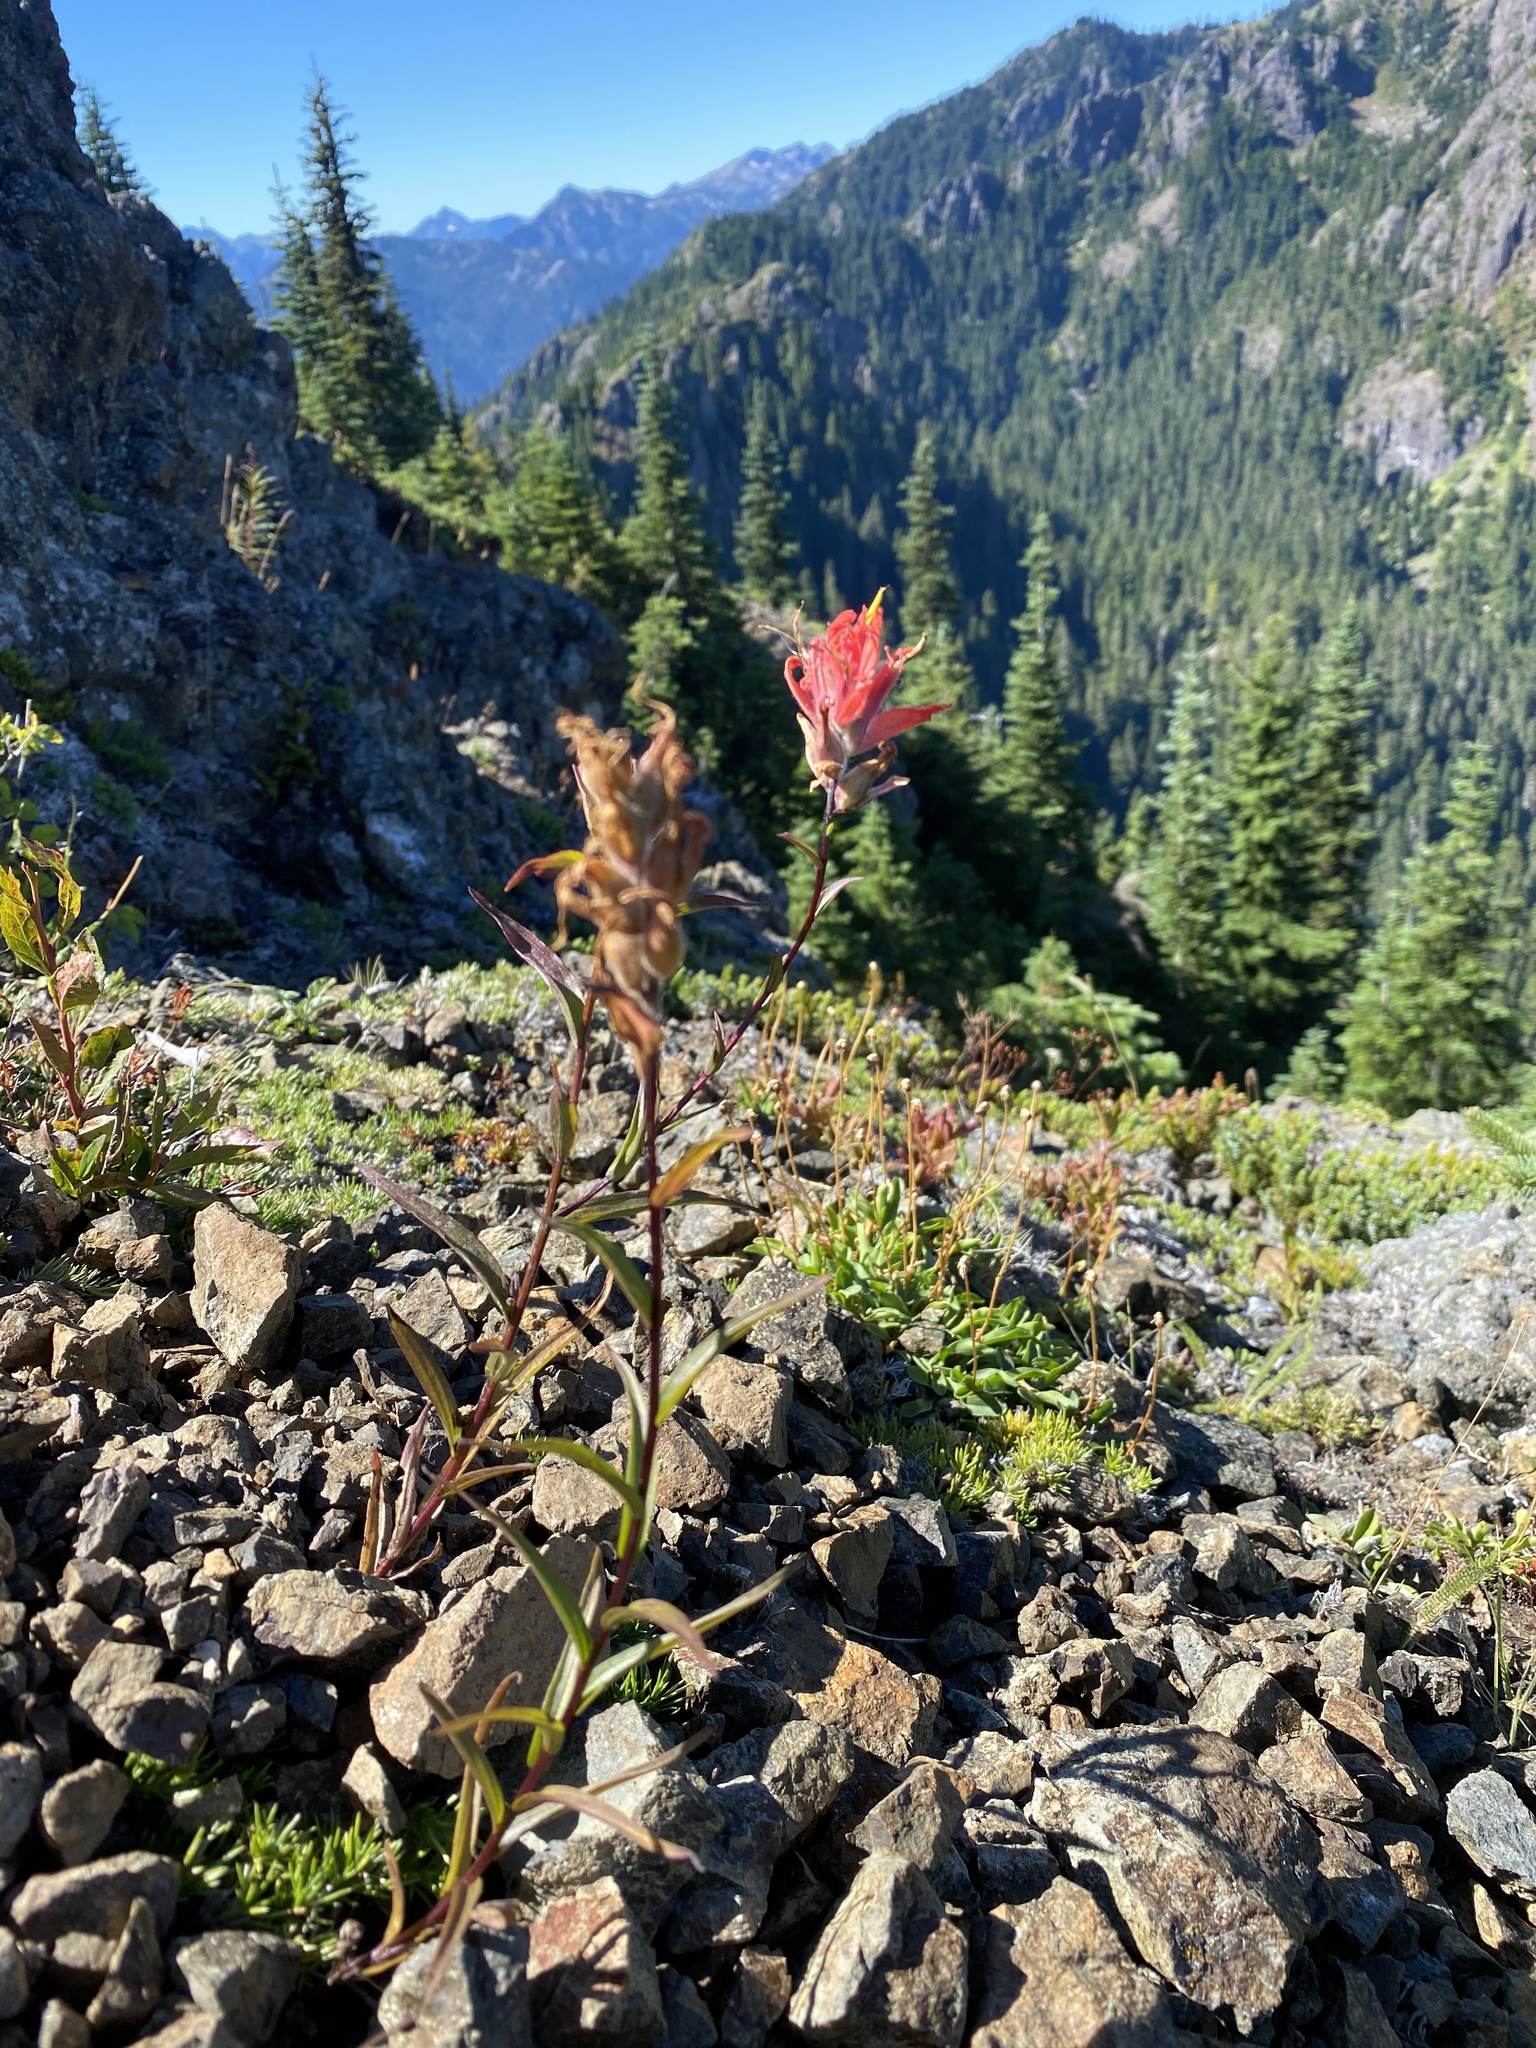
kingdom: Plantae
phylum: Tracheophyta
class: Magnoliopsida
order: Lamiales
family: Orobanchaceae
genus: Castilleja
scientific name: Castilleja miniata
